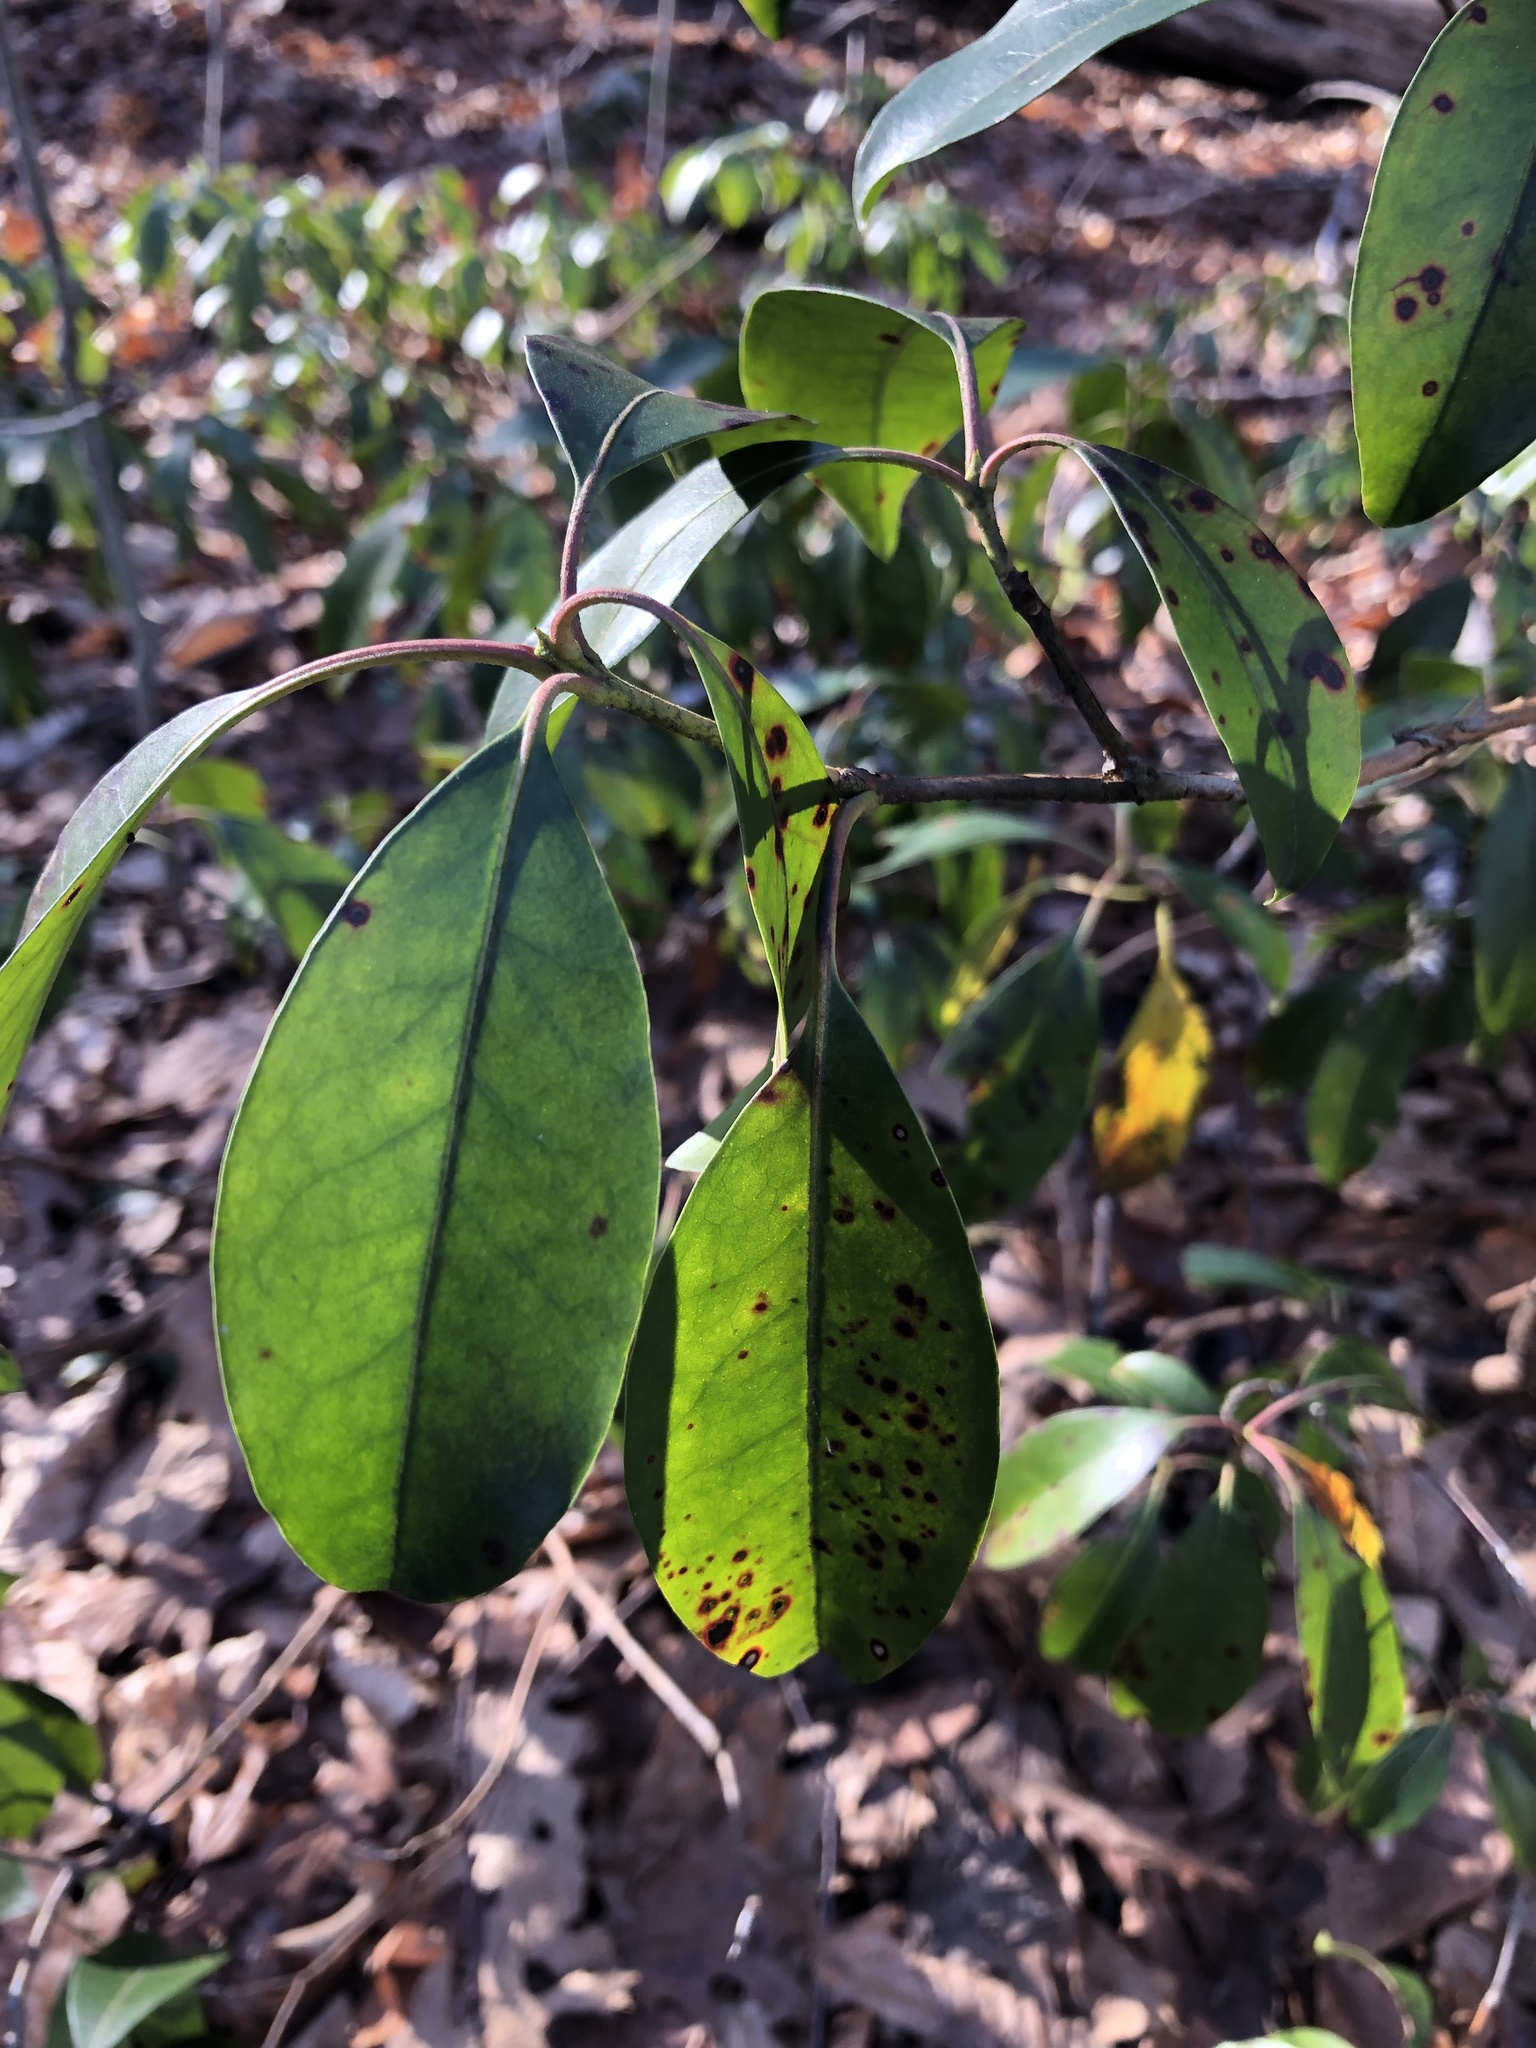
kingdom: Plantae
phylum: Tracheophyta
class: Magnoliopsida
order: Ericales
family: Ericaceae
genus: Kalmia
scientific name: Kalmia latifolia
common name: Mountain-laurel
